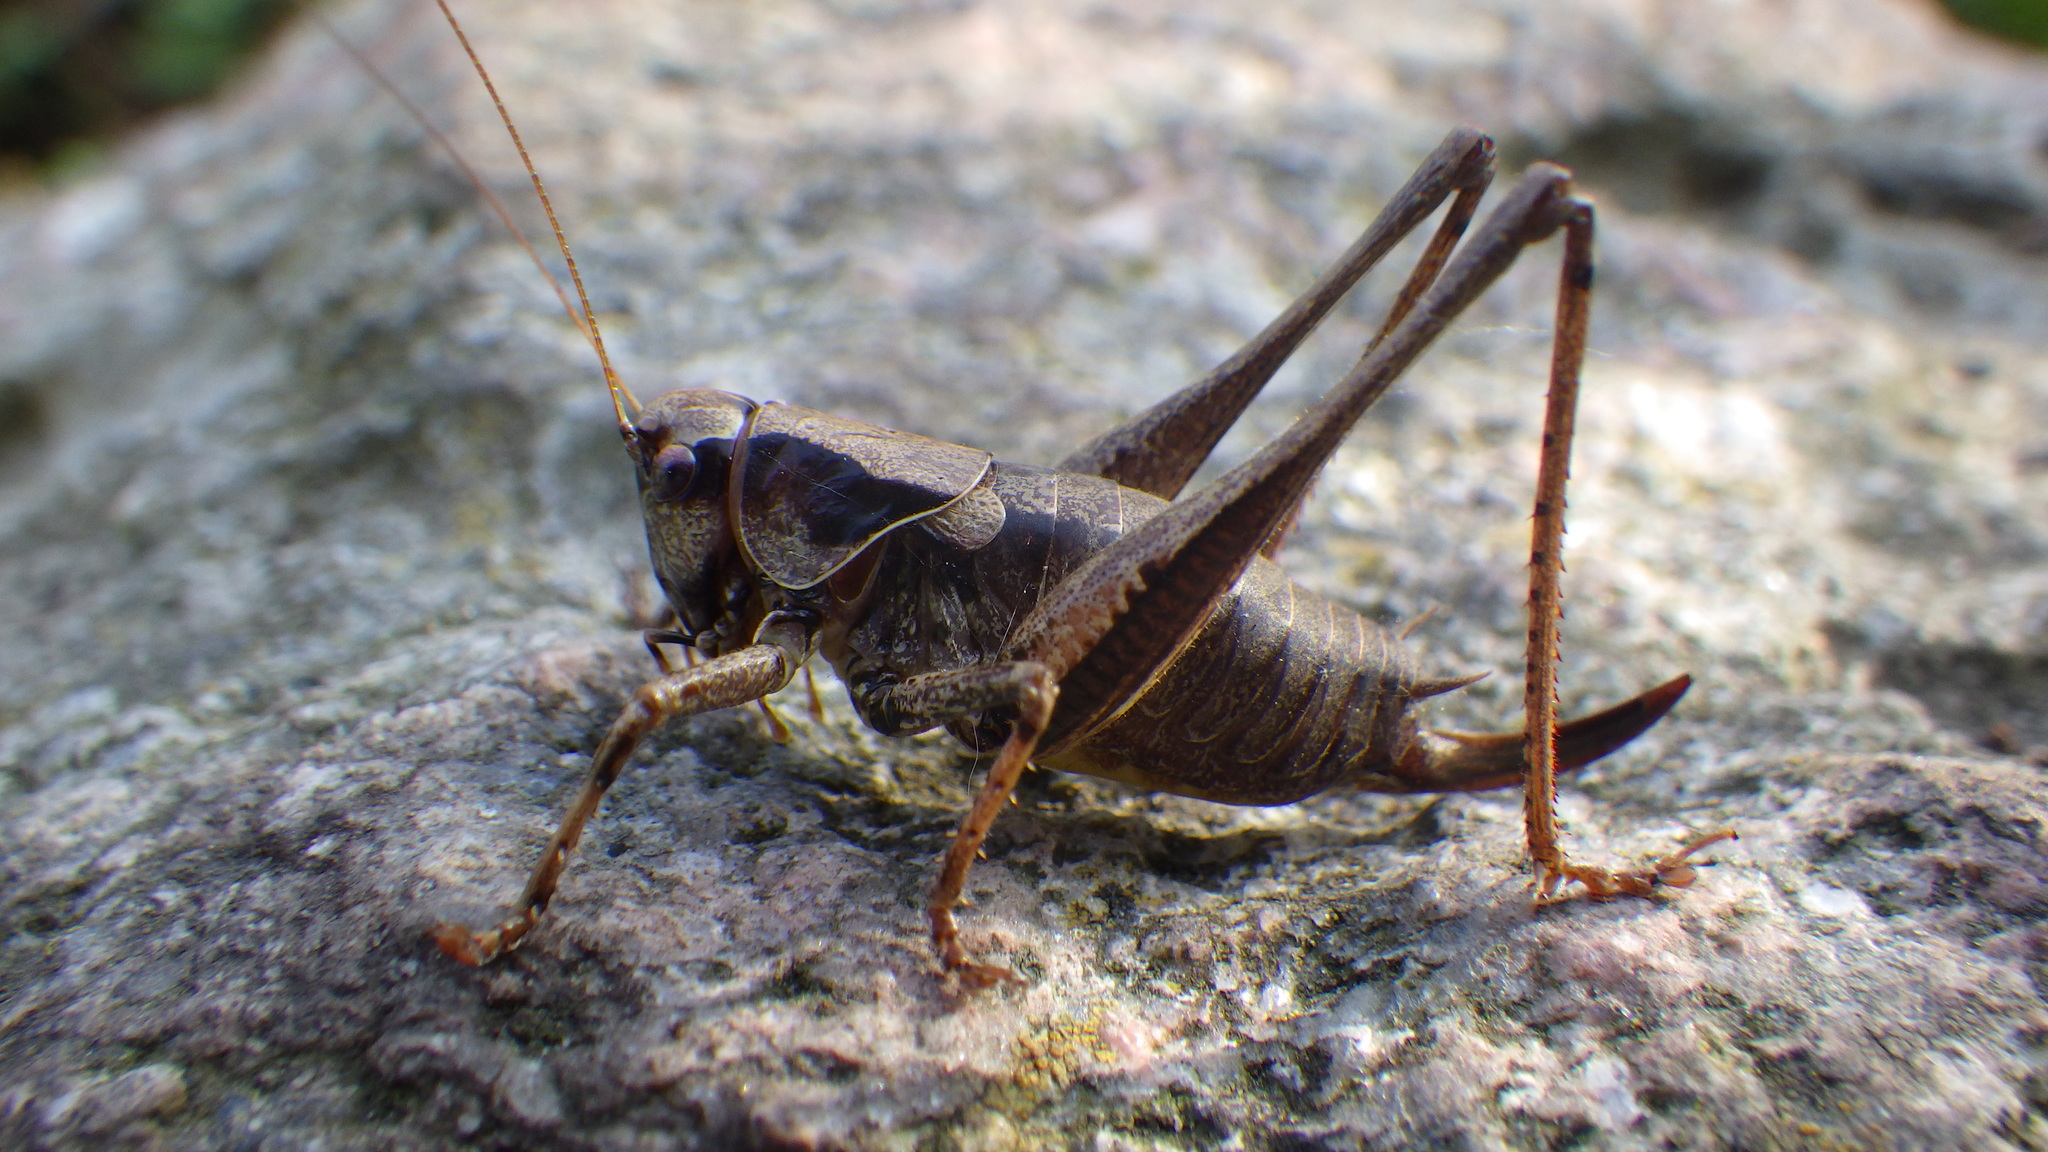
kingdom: Animalia
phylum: Arthropoda
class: Insecta
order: Orthoptera
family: Tettigoniidae
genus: Pholidoptera
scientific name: Pholidoptera griseoaptera
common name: Dark bush-cricket
